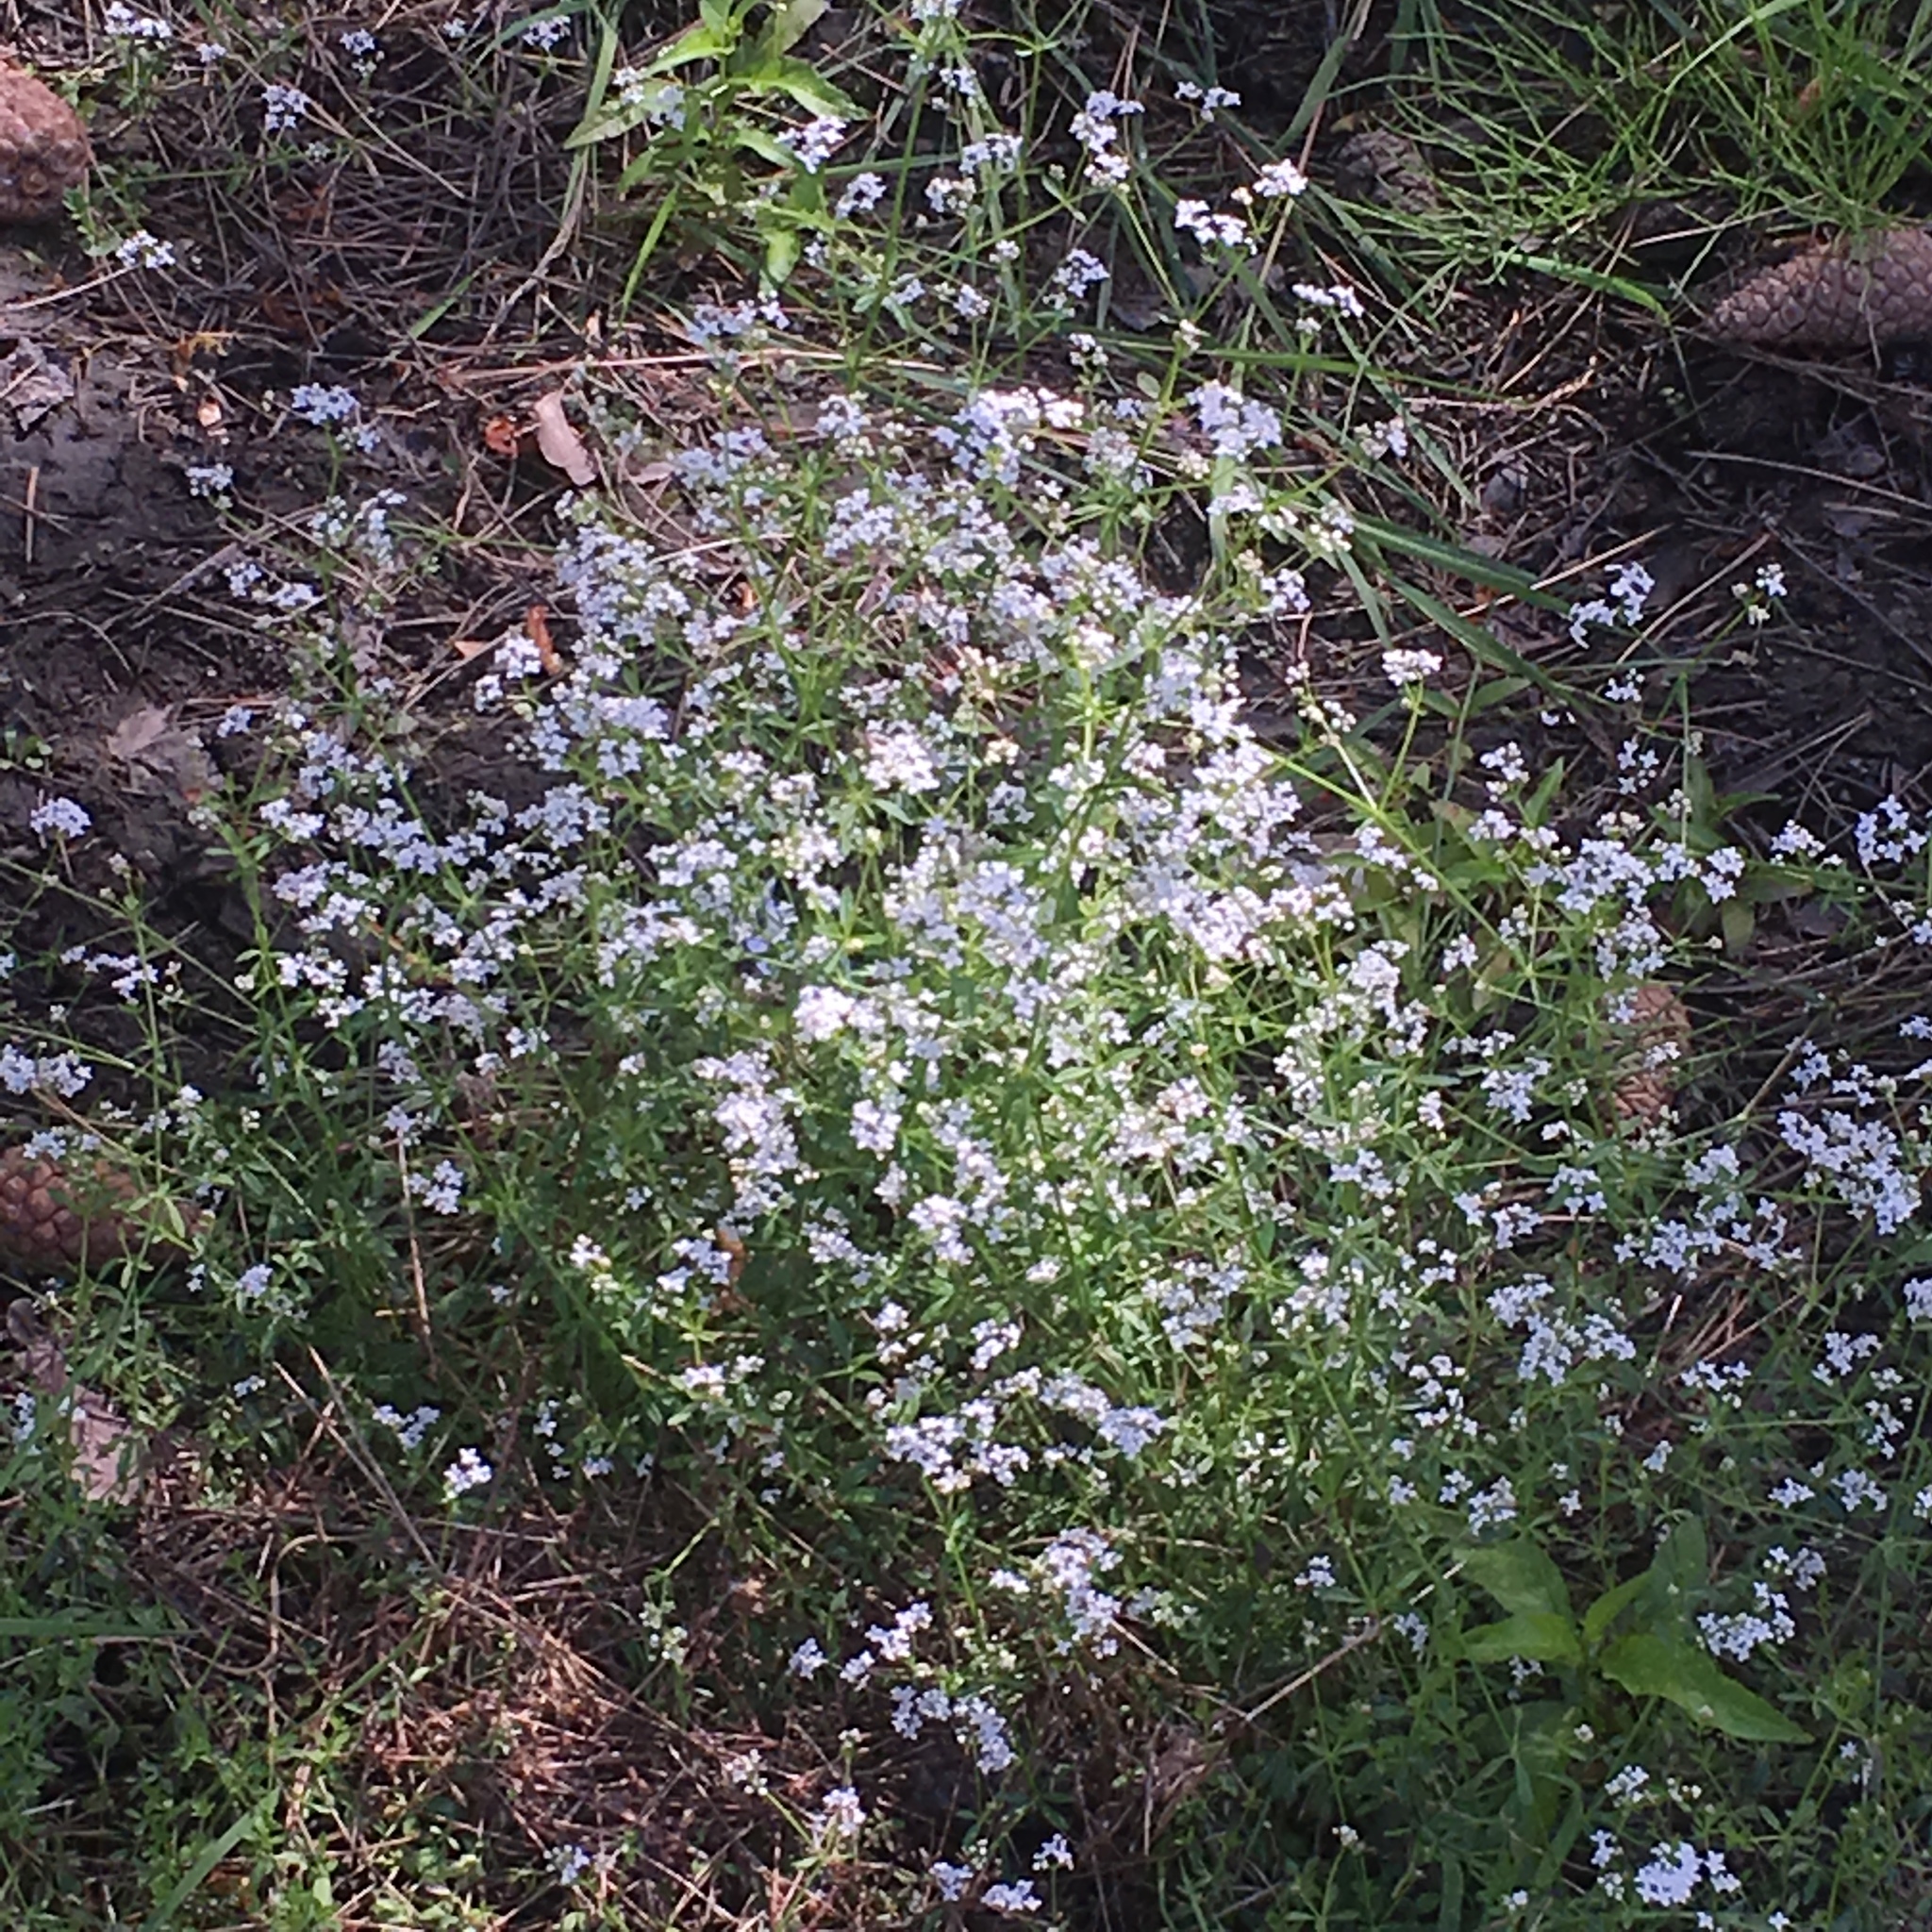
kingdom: Plantae
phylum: Tracheophyta
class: Magnoliopsida
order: Gentianales
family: Rubiaceae
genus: Galium
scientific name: Galium trifidum
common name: Small bedstraw
